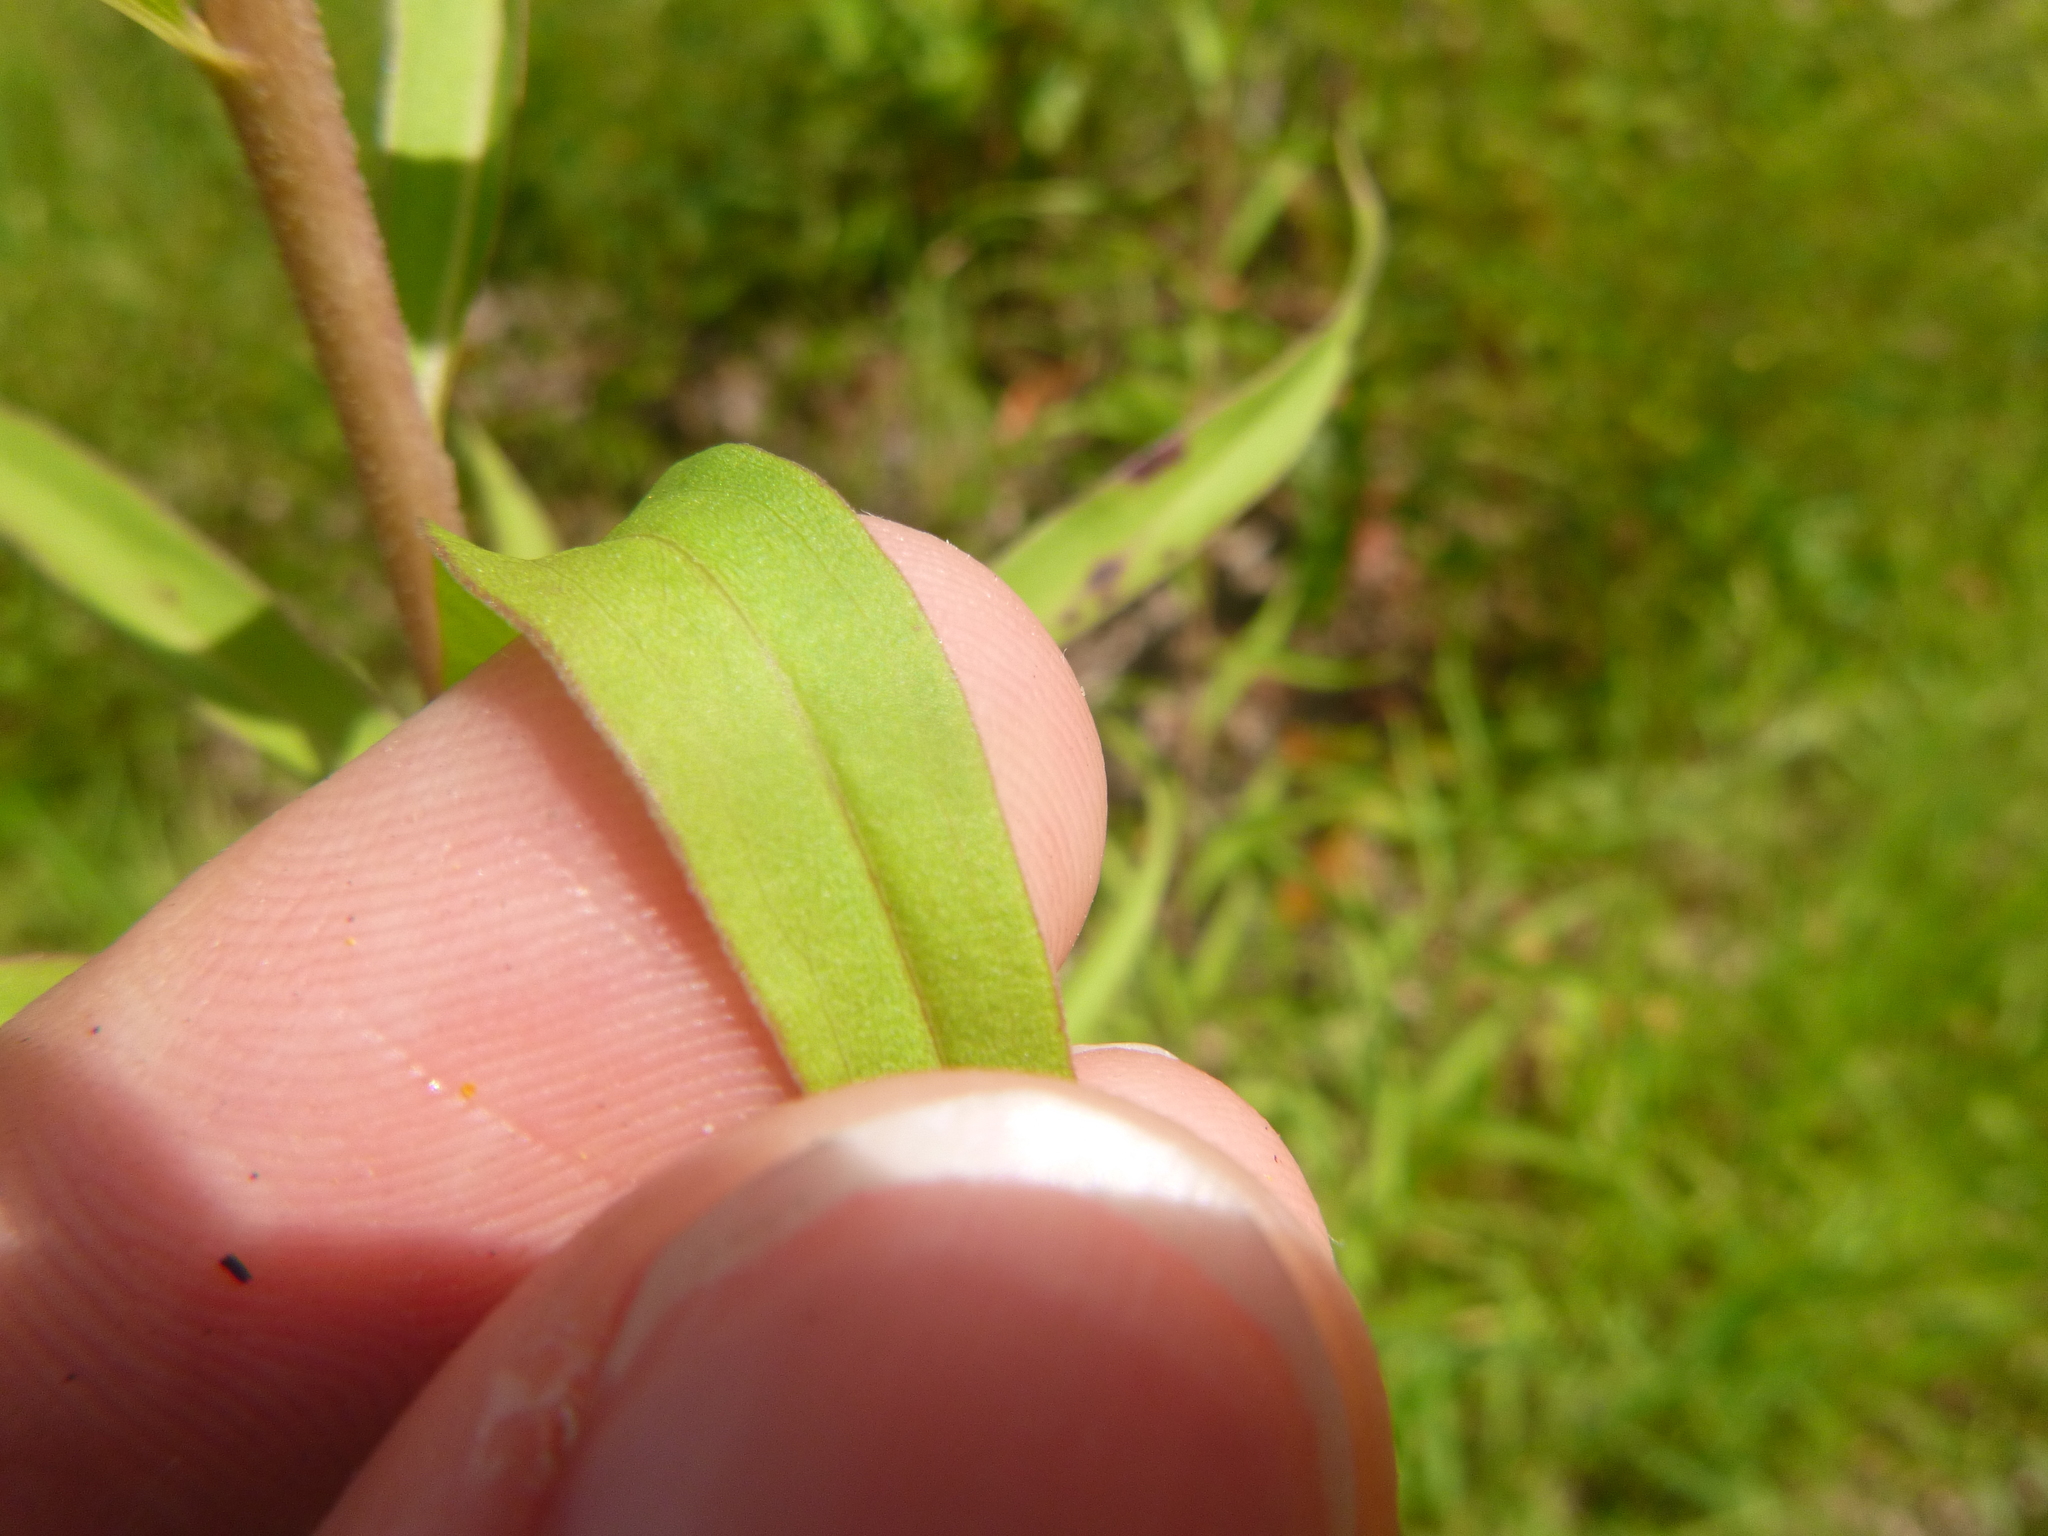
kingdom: Plantae
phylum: Tracheophyta
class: Magnoliopsida
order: Asterales
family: Asteraceae
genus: Solidago
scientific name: Solidago leavenworthii
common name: Leavenworth's goldenrod
